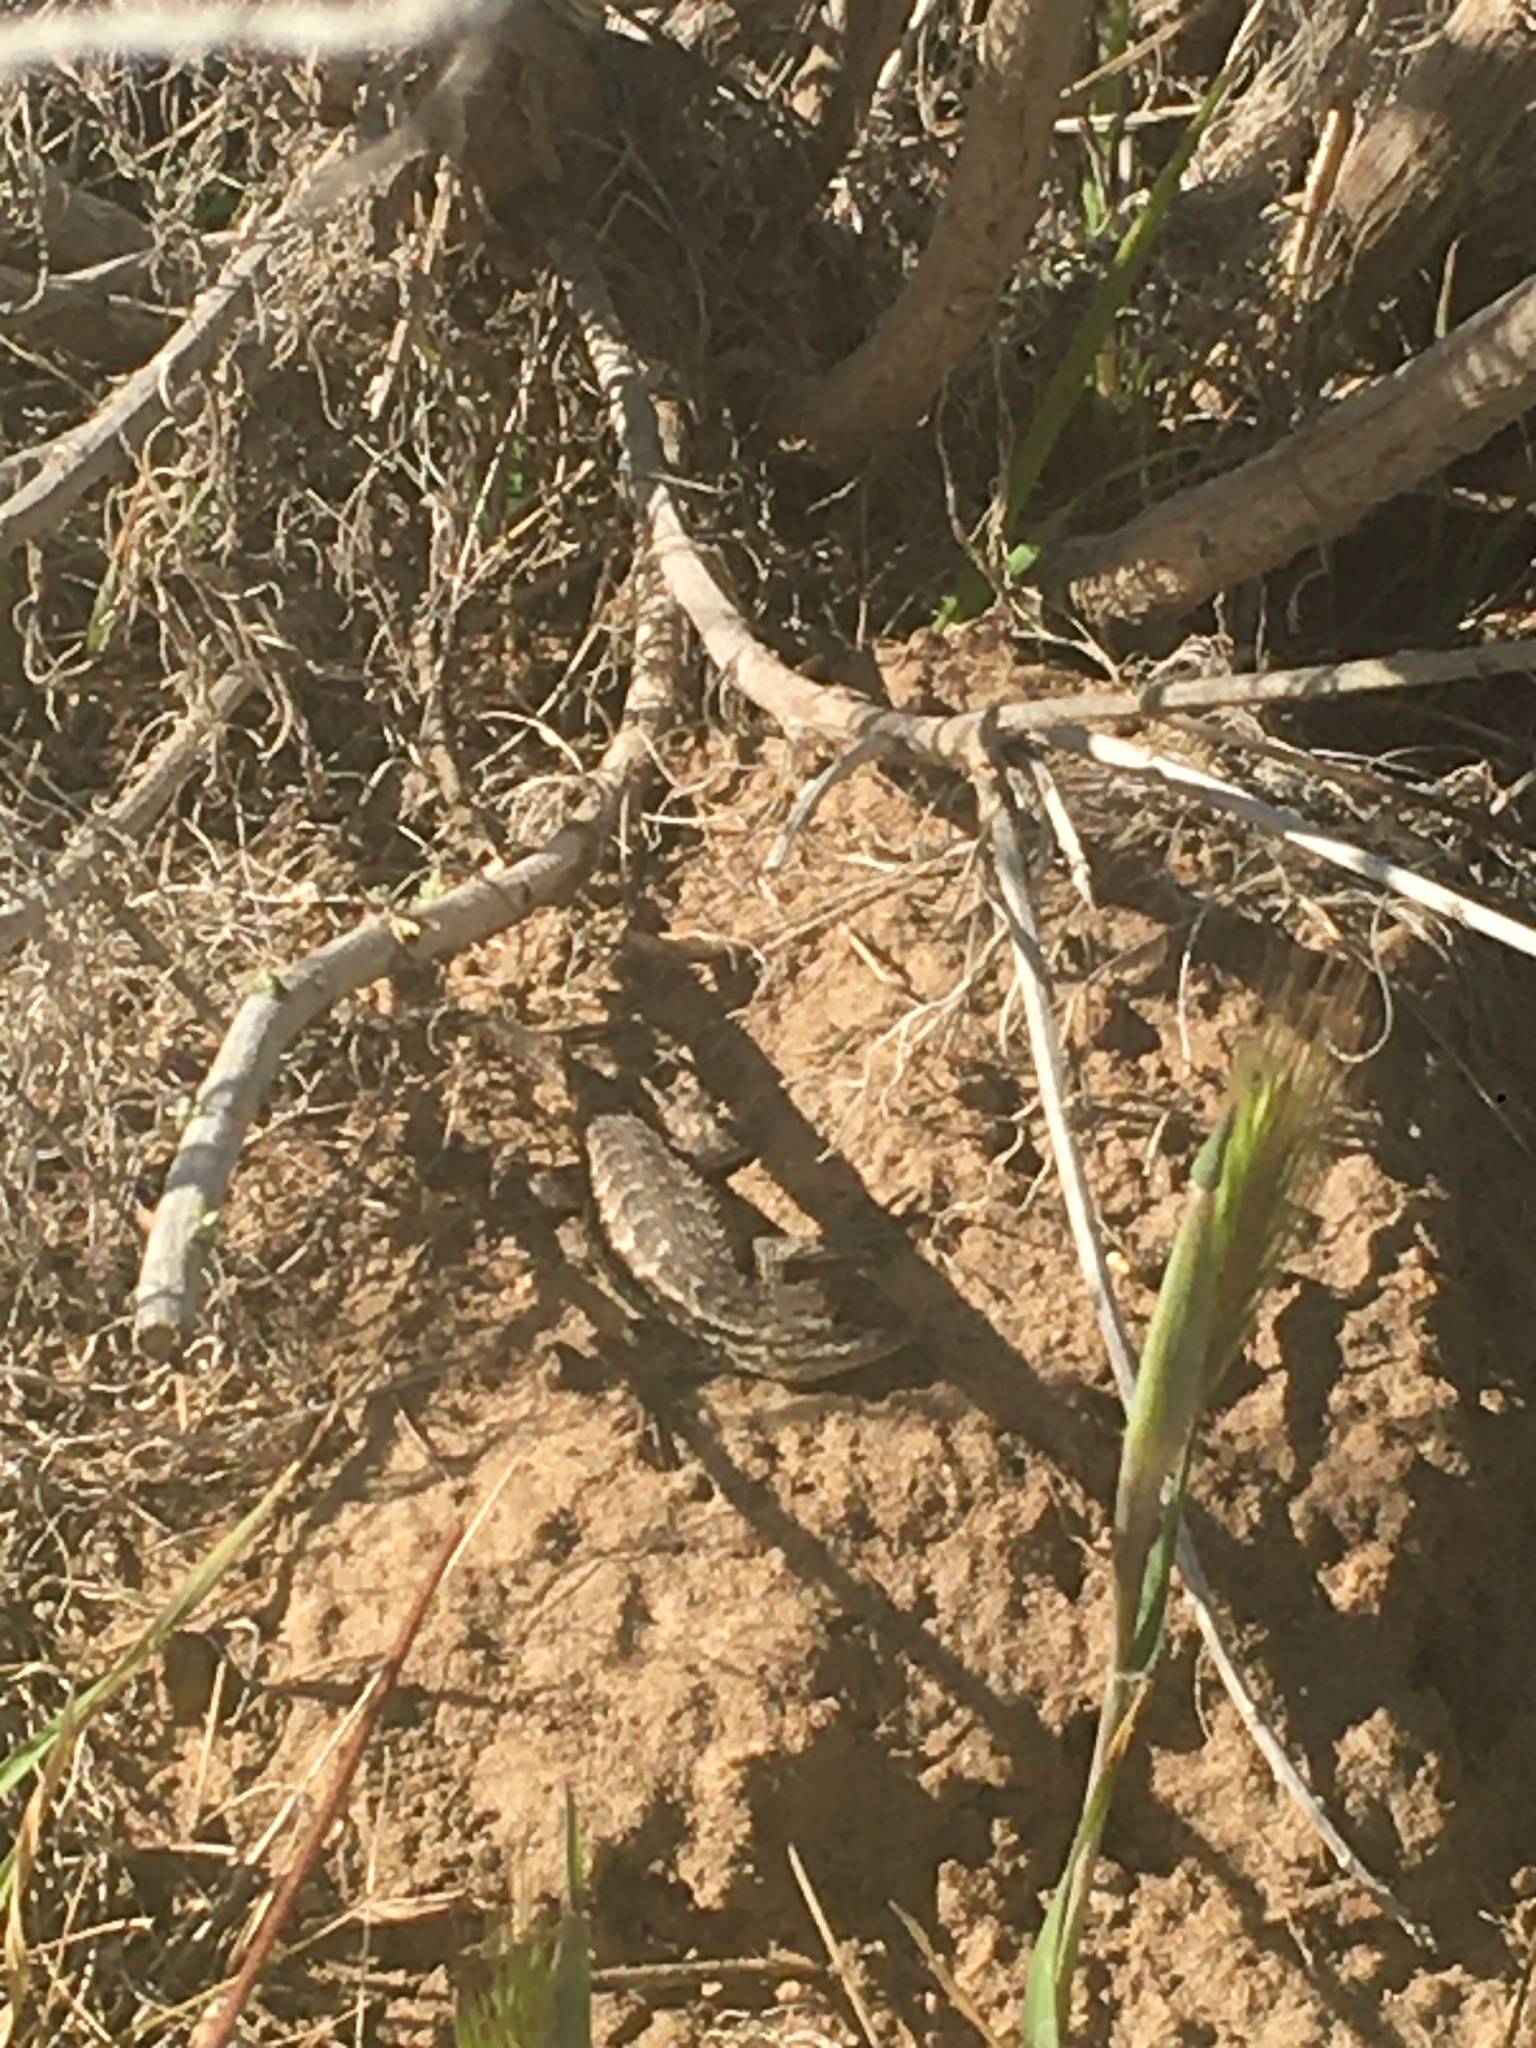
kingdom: Animalia
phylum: Chordata
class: Squamata
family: Phrynosomatidae
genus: Sceloporus
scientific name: Sceloporus occidentalis
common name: Western fence lizard
